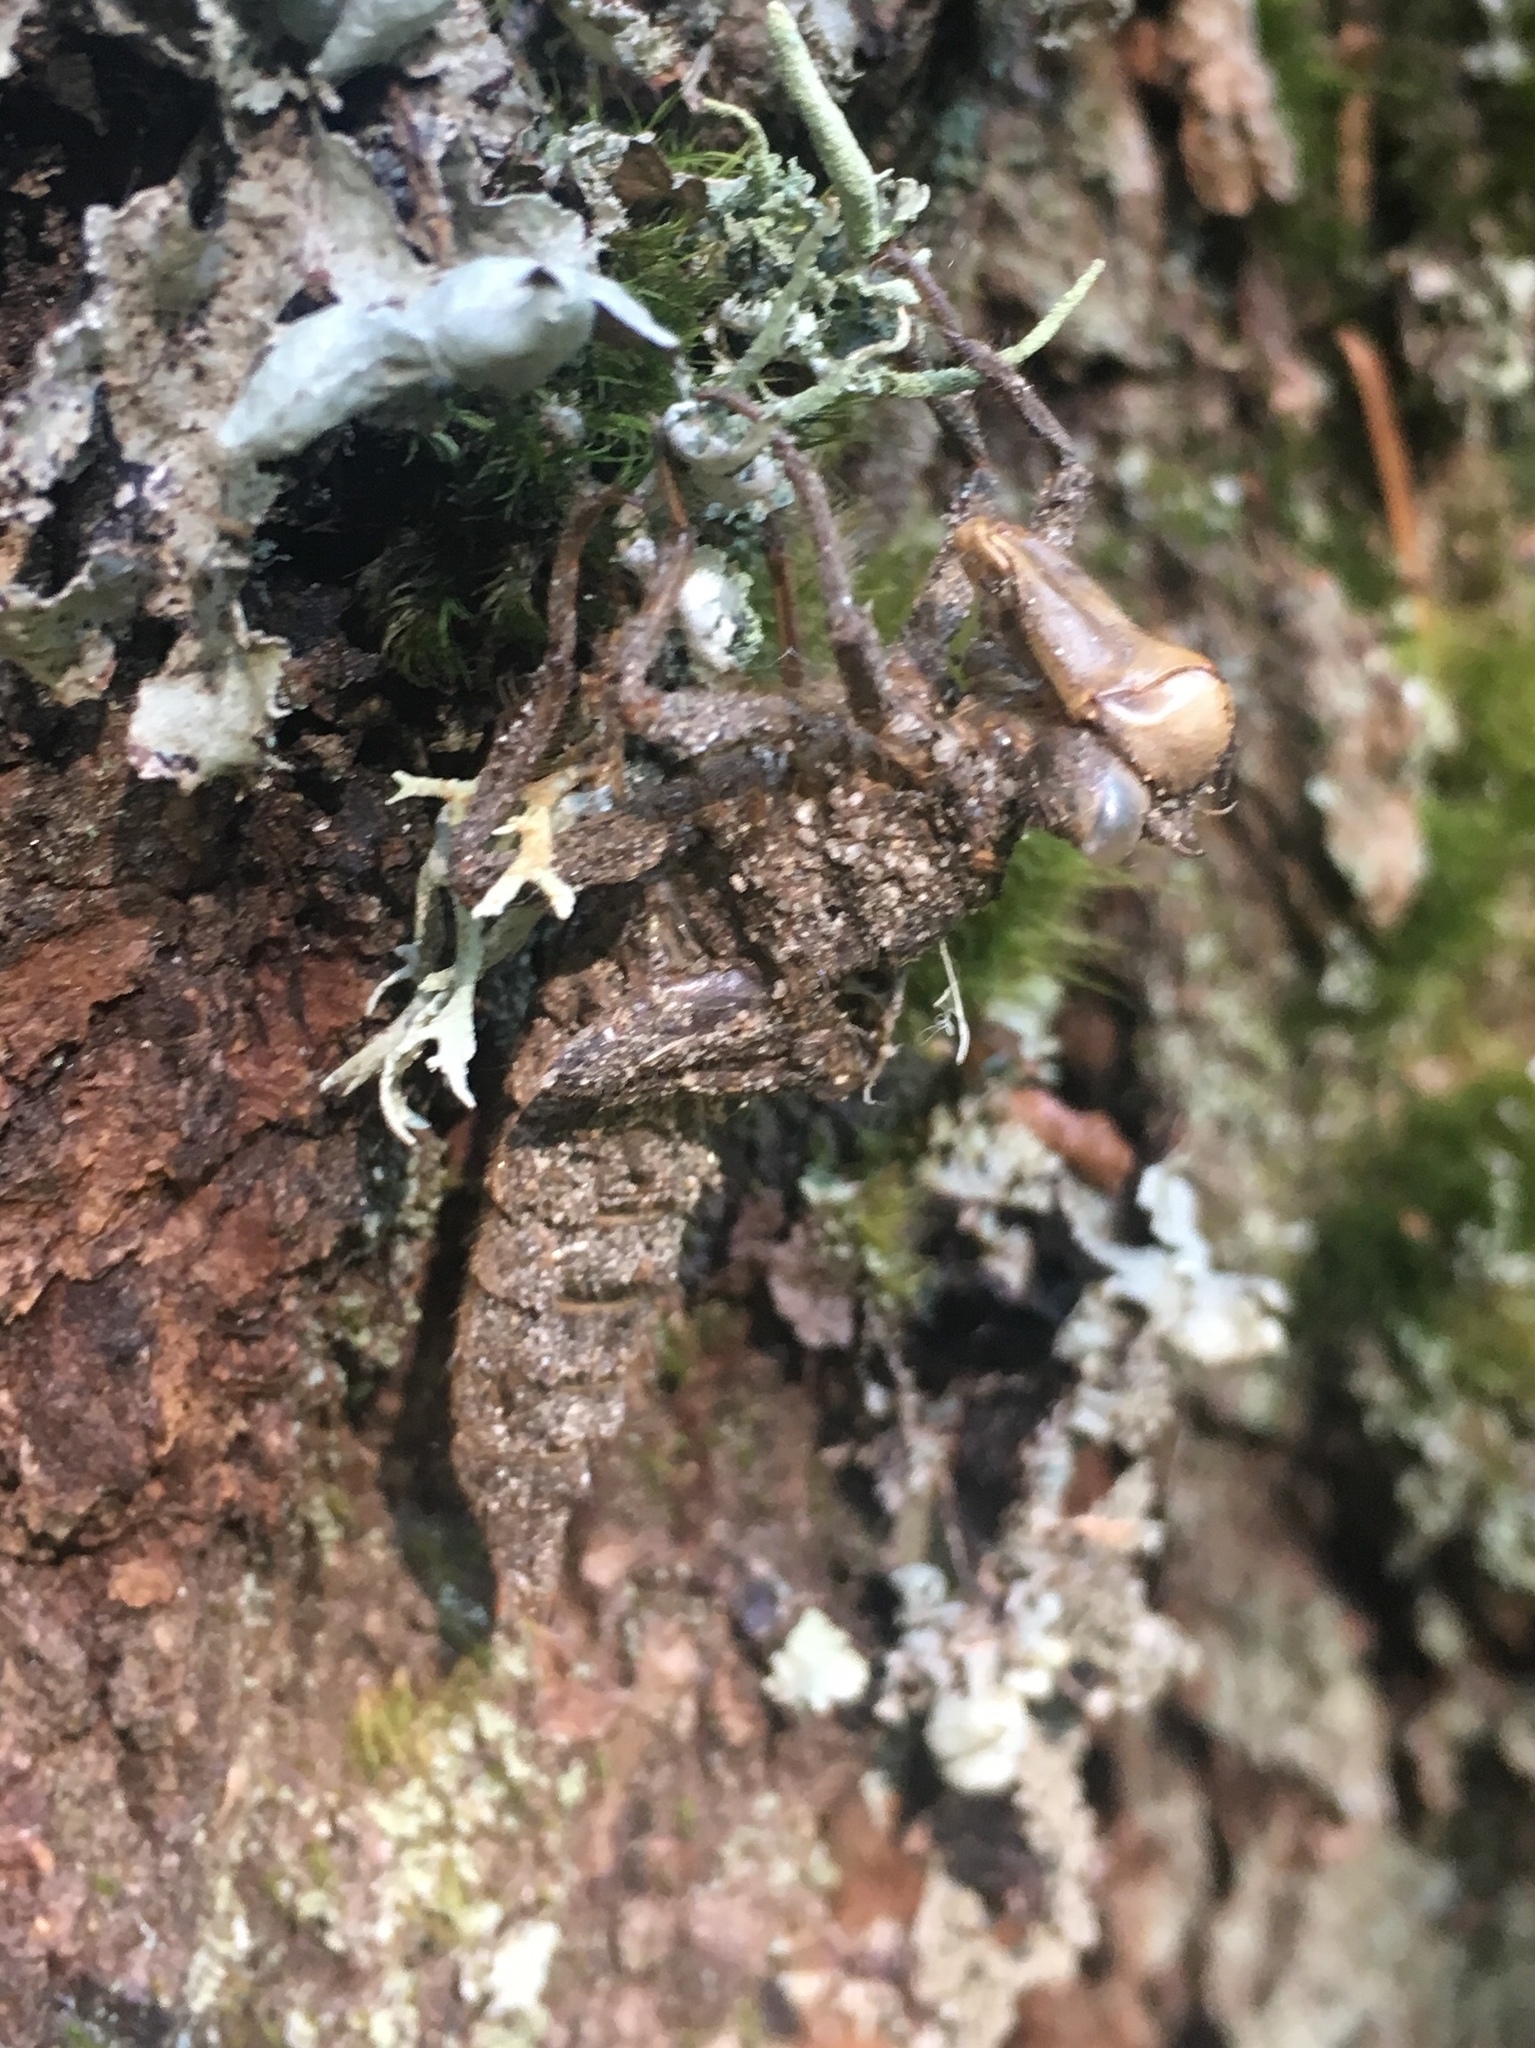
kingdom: Animalia
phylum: Arthropoda
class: Insecta
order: Odonata
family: Cordulegastridae
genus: Cordulegaster
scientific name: Cordulegaster dorsalis
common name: Pacific spiketail
